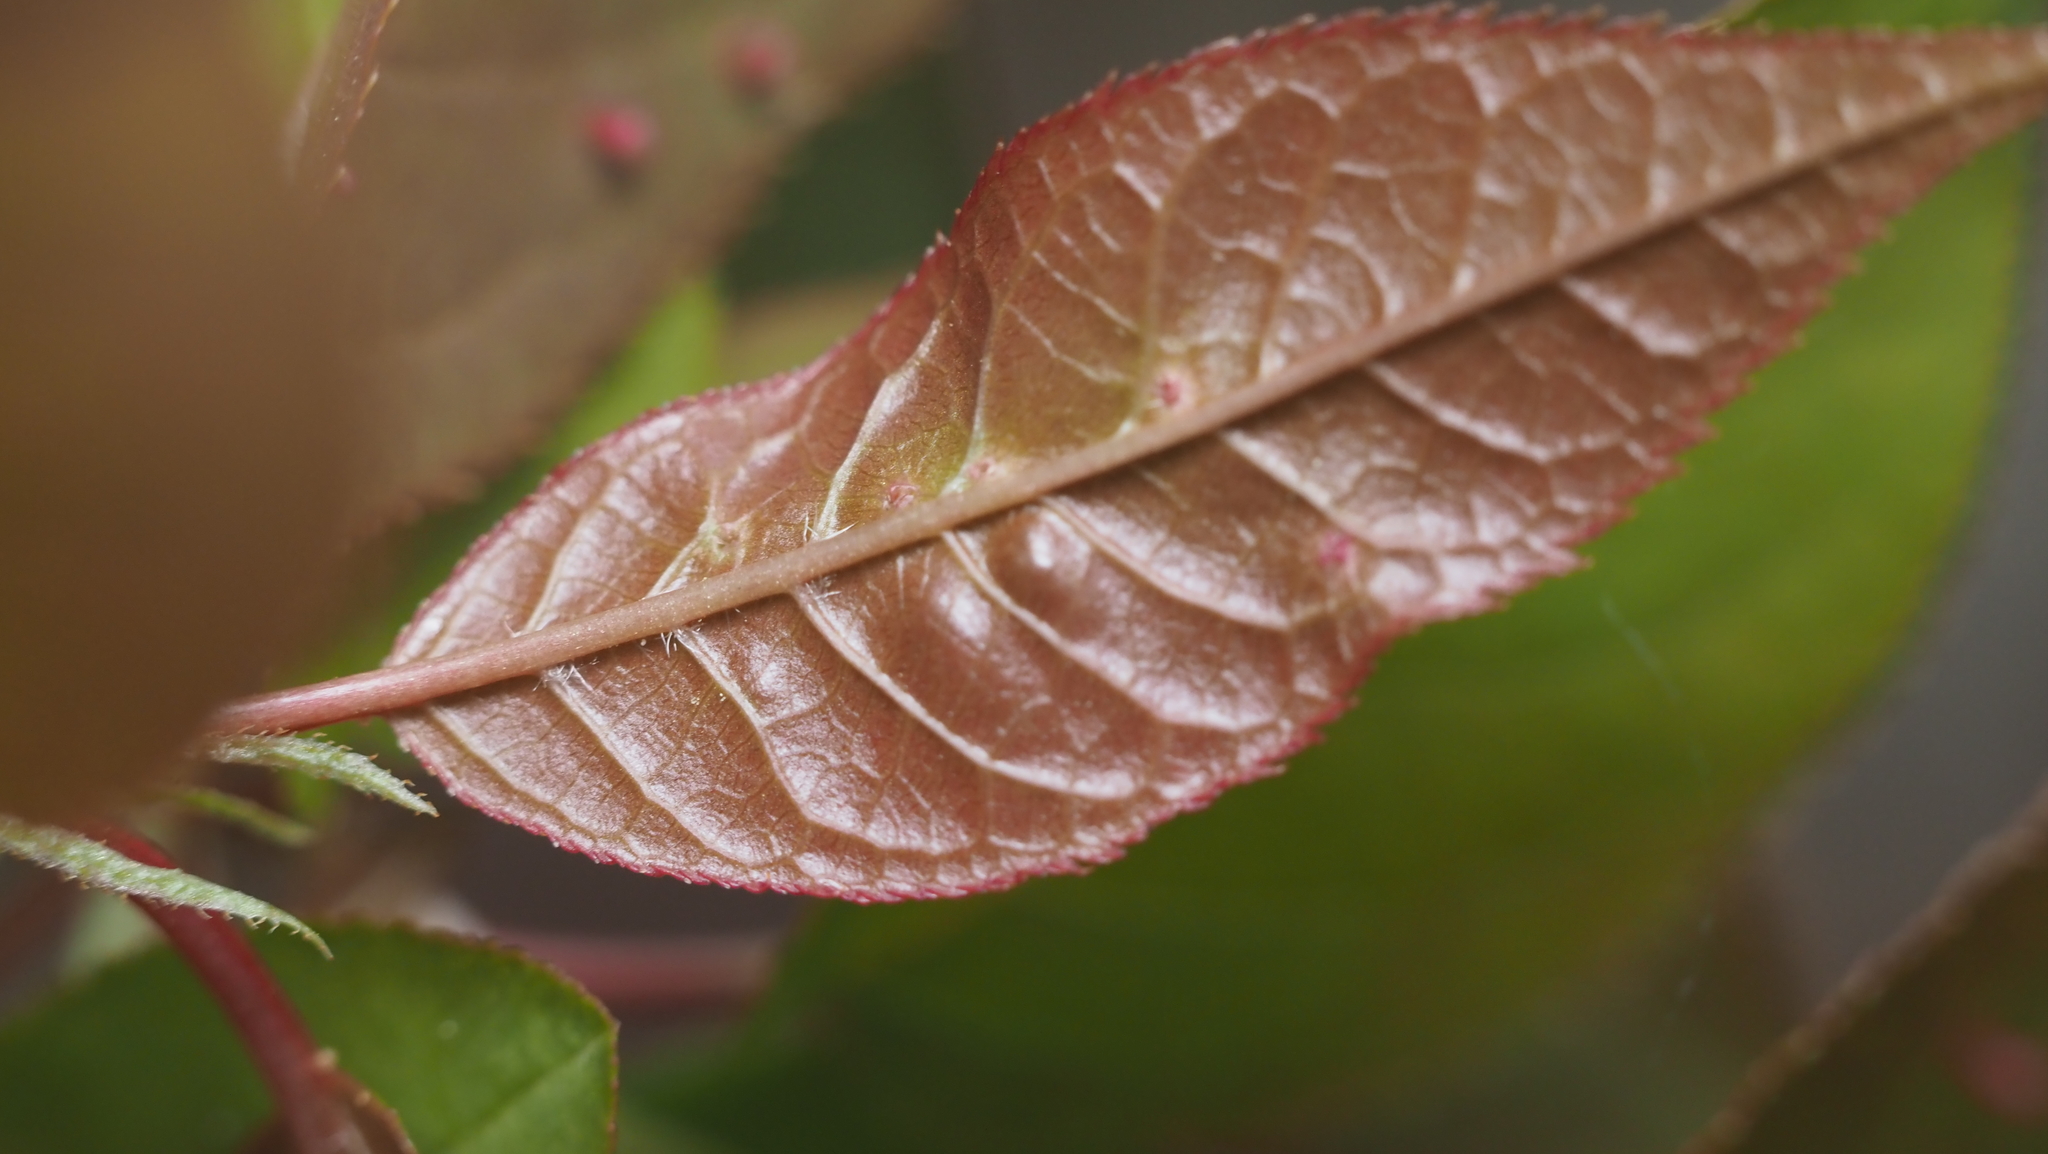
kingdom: Animalia
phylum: Arthropoda
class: Arachnida
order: Trombidiformes
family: Eriophyidae
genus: Eriophyes
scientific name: Eriophyes emarginatae
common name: Plum leaf gall mite
